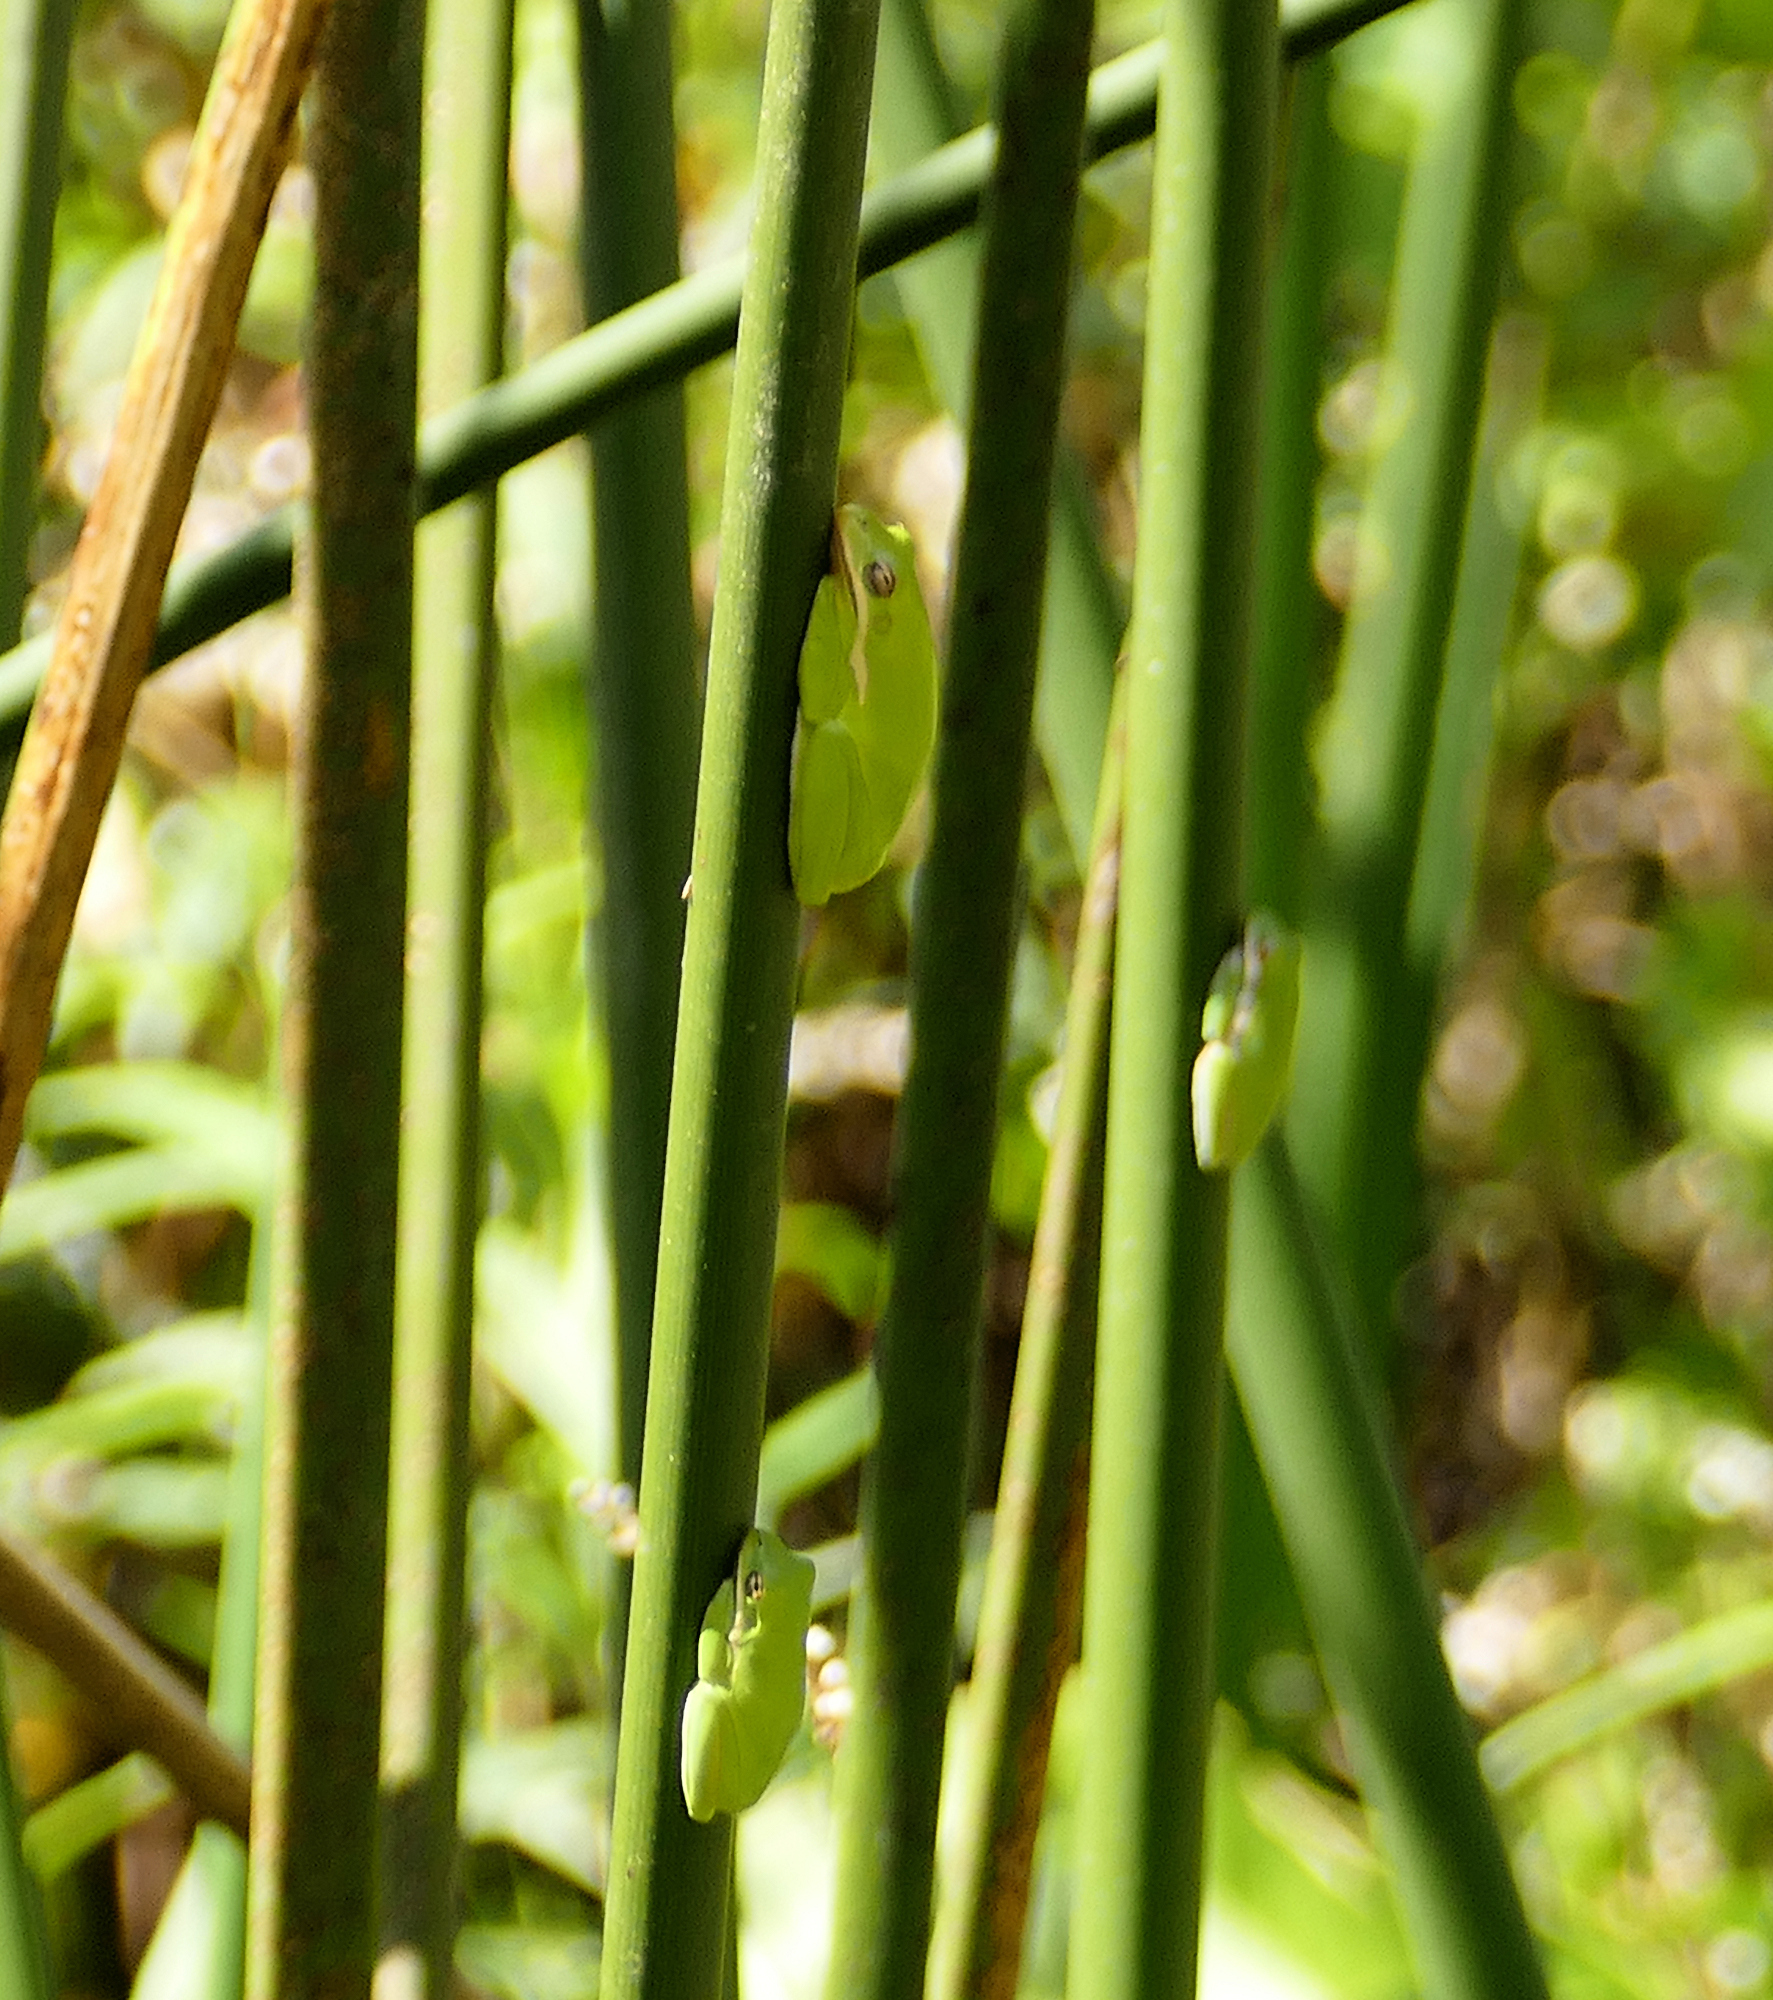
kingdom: Animalia
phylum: Chordata
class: Amphibia
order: Anura
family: Hylidae
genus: Dryophytes
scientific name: Dryophytes cinereus
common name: Green treefrog
